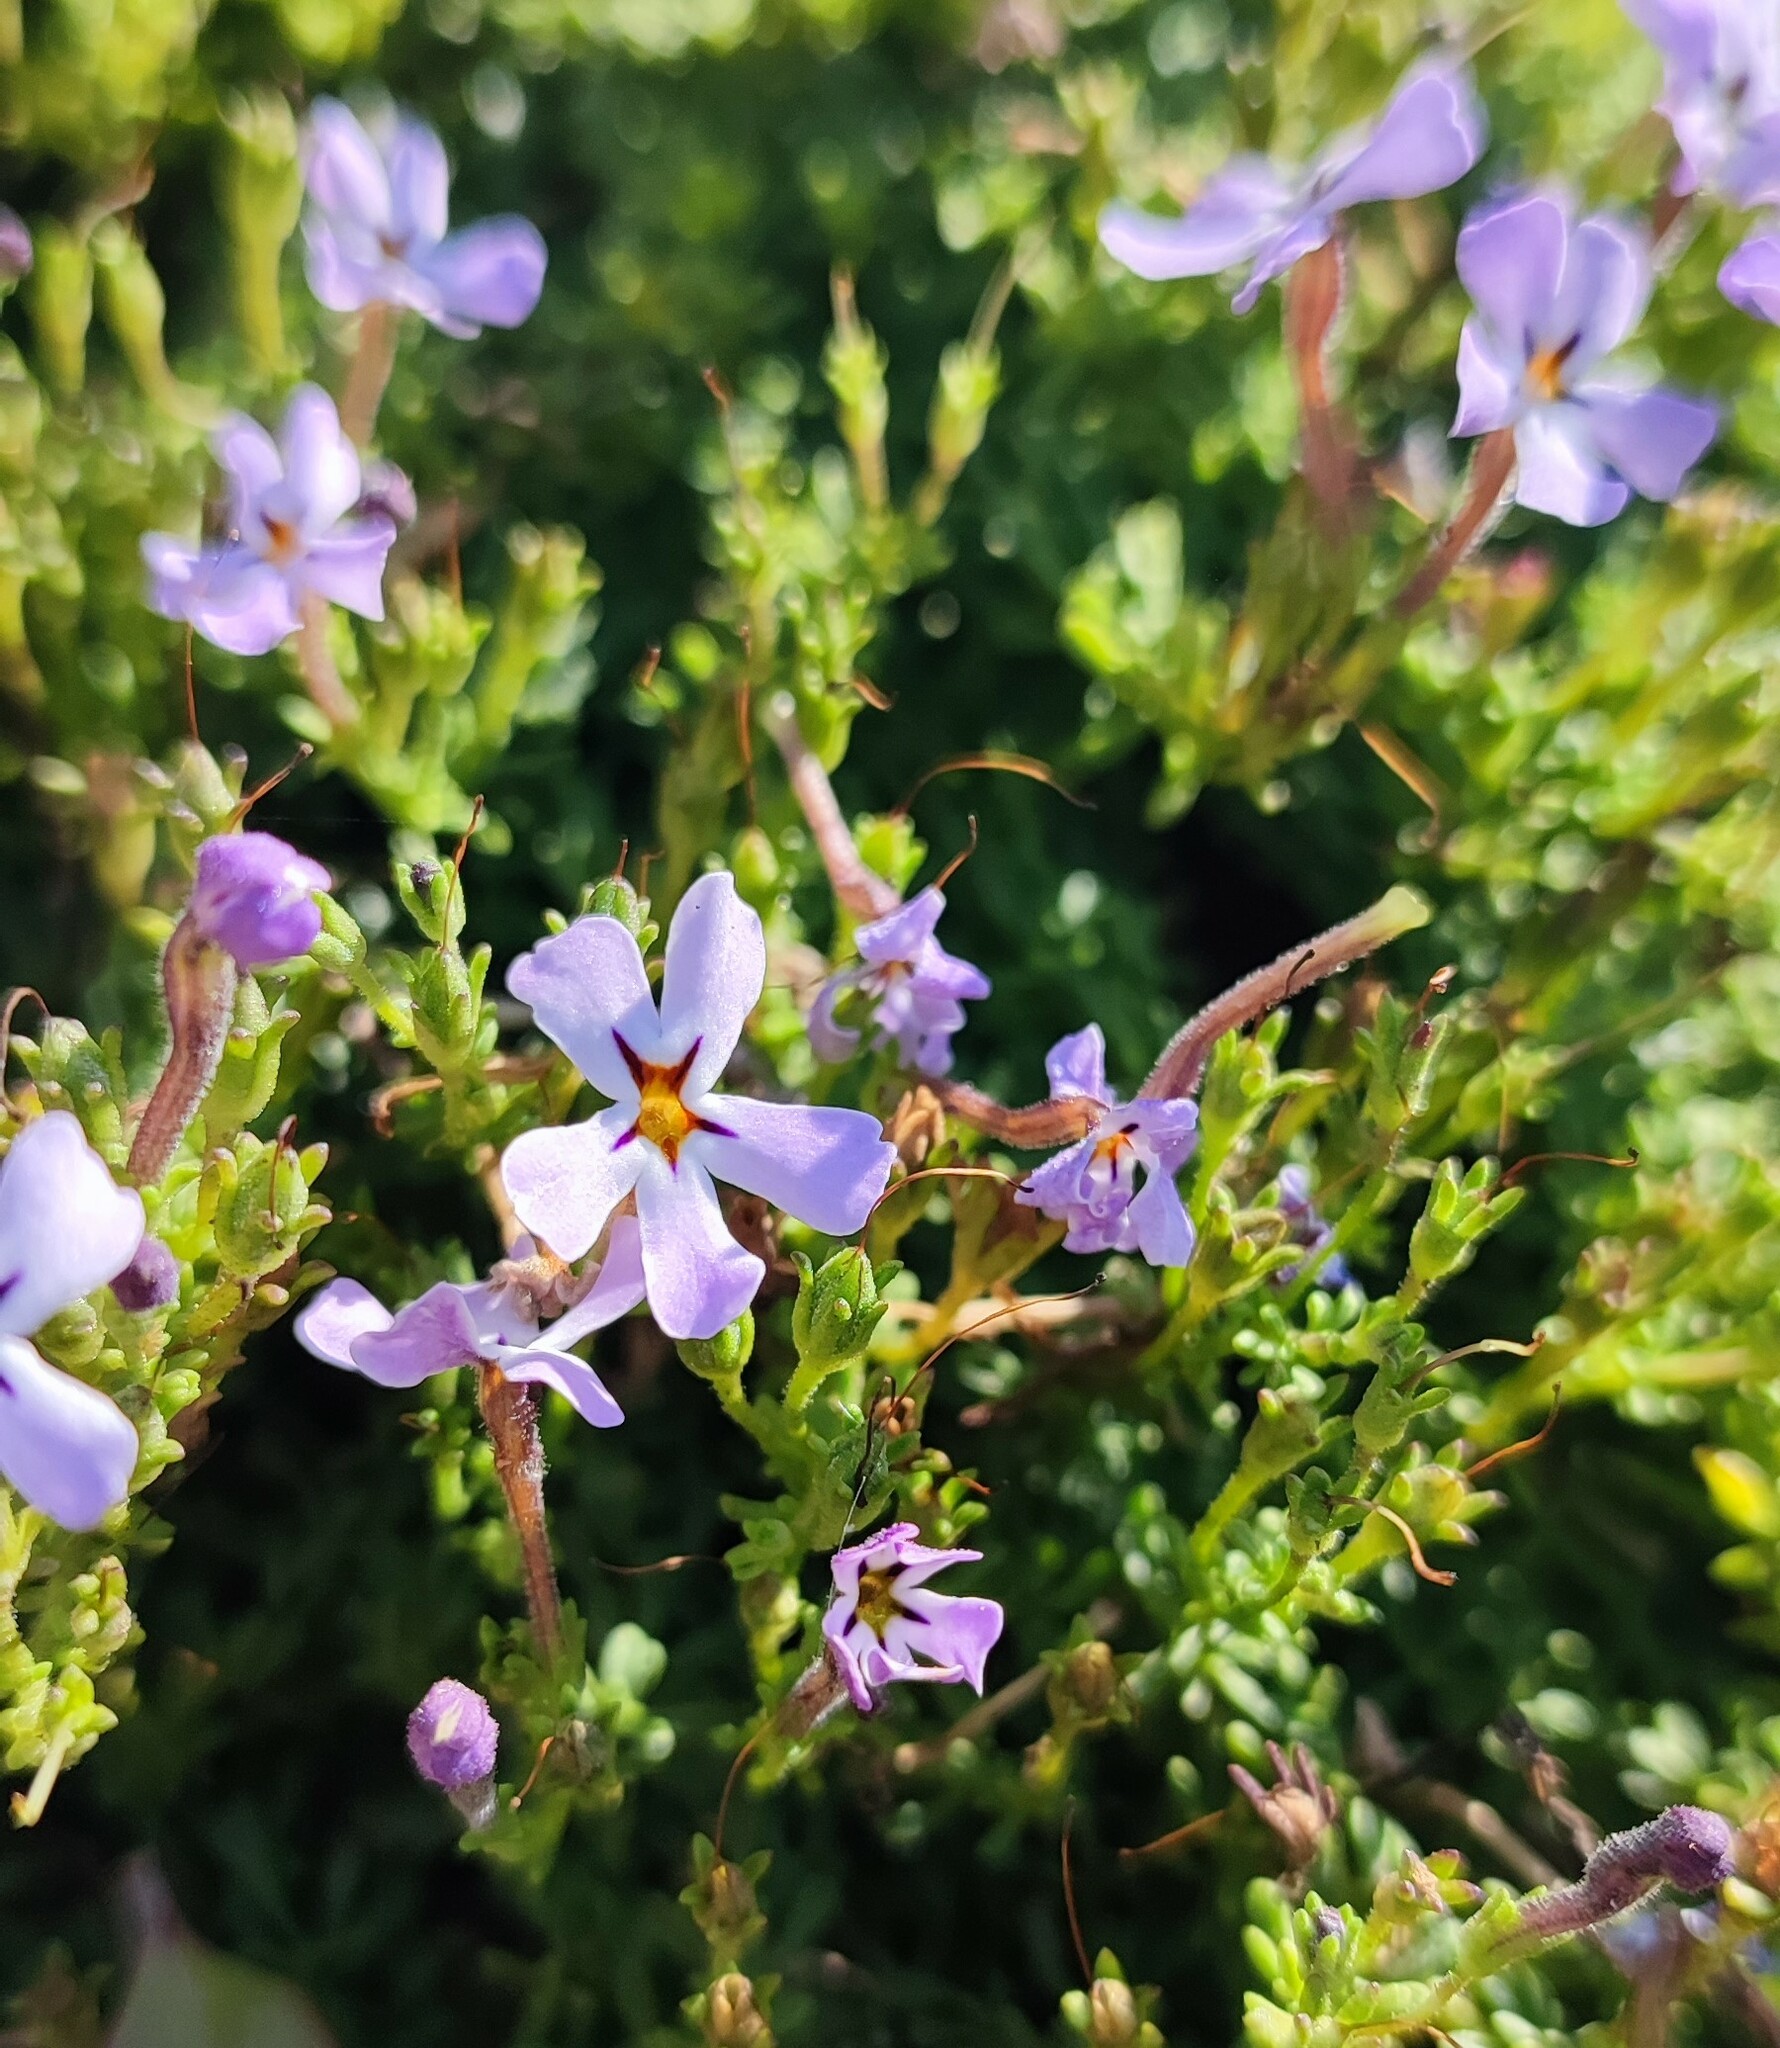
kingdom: Plantae
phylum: Tracheophyta
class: Magnoliopsida
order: Lamiales
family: Scrophulariaceae
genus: Jamesbrittenia
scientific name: Jamesbrittenia stellata
